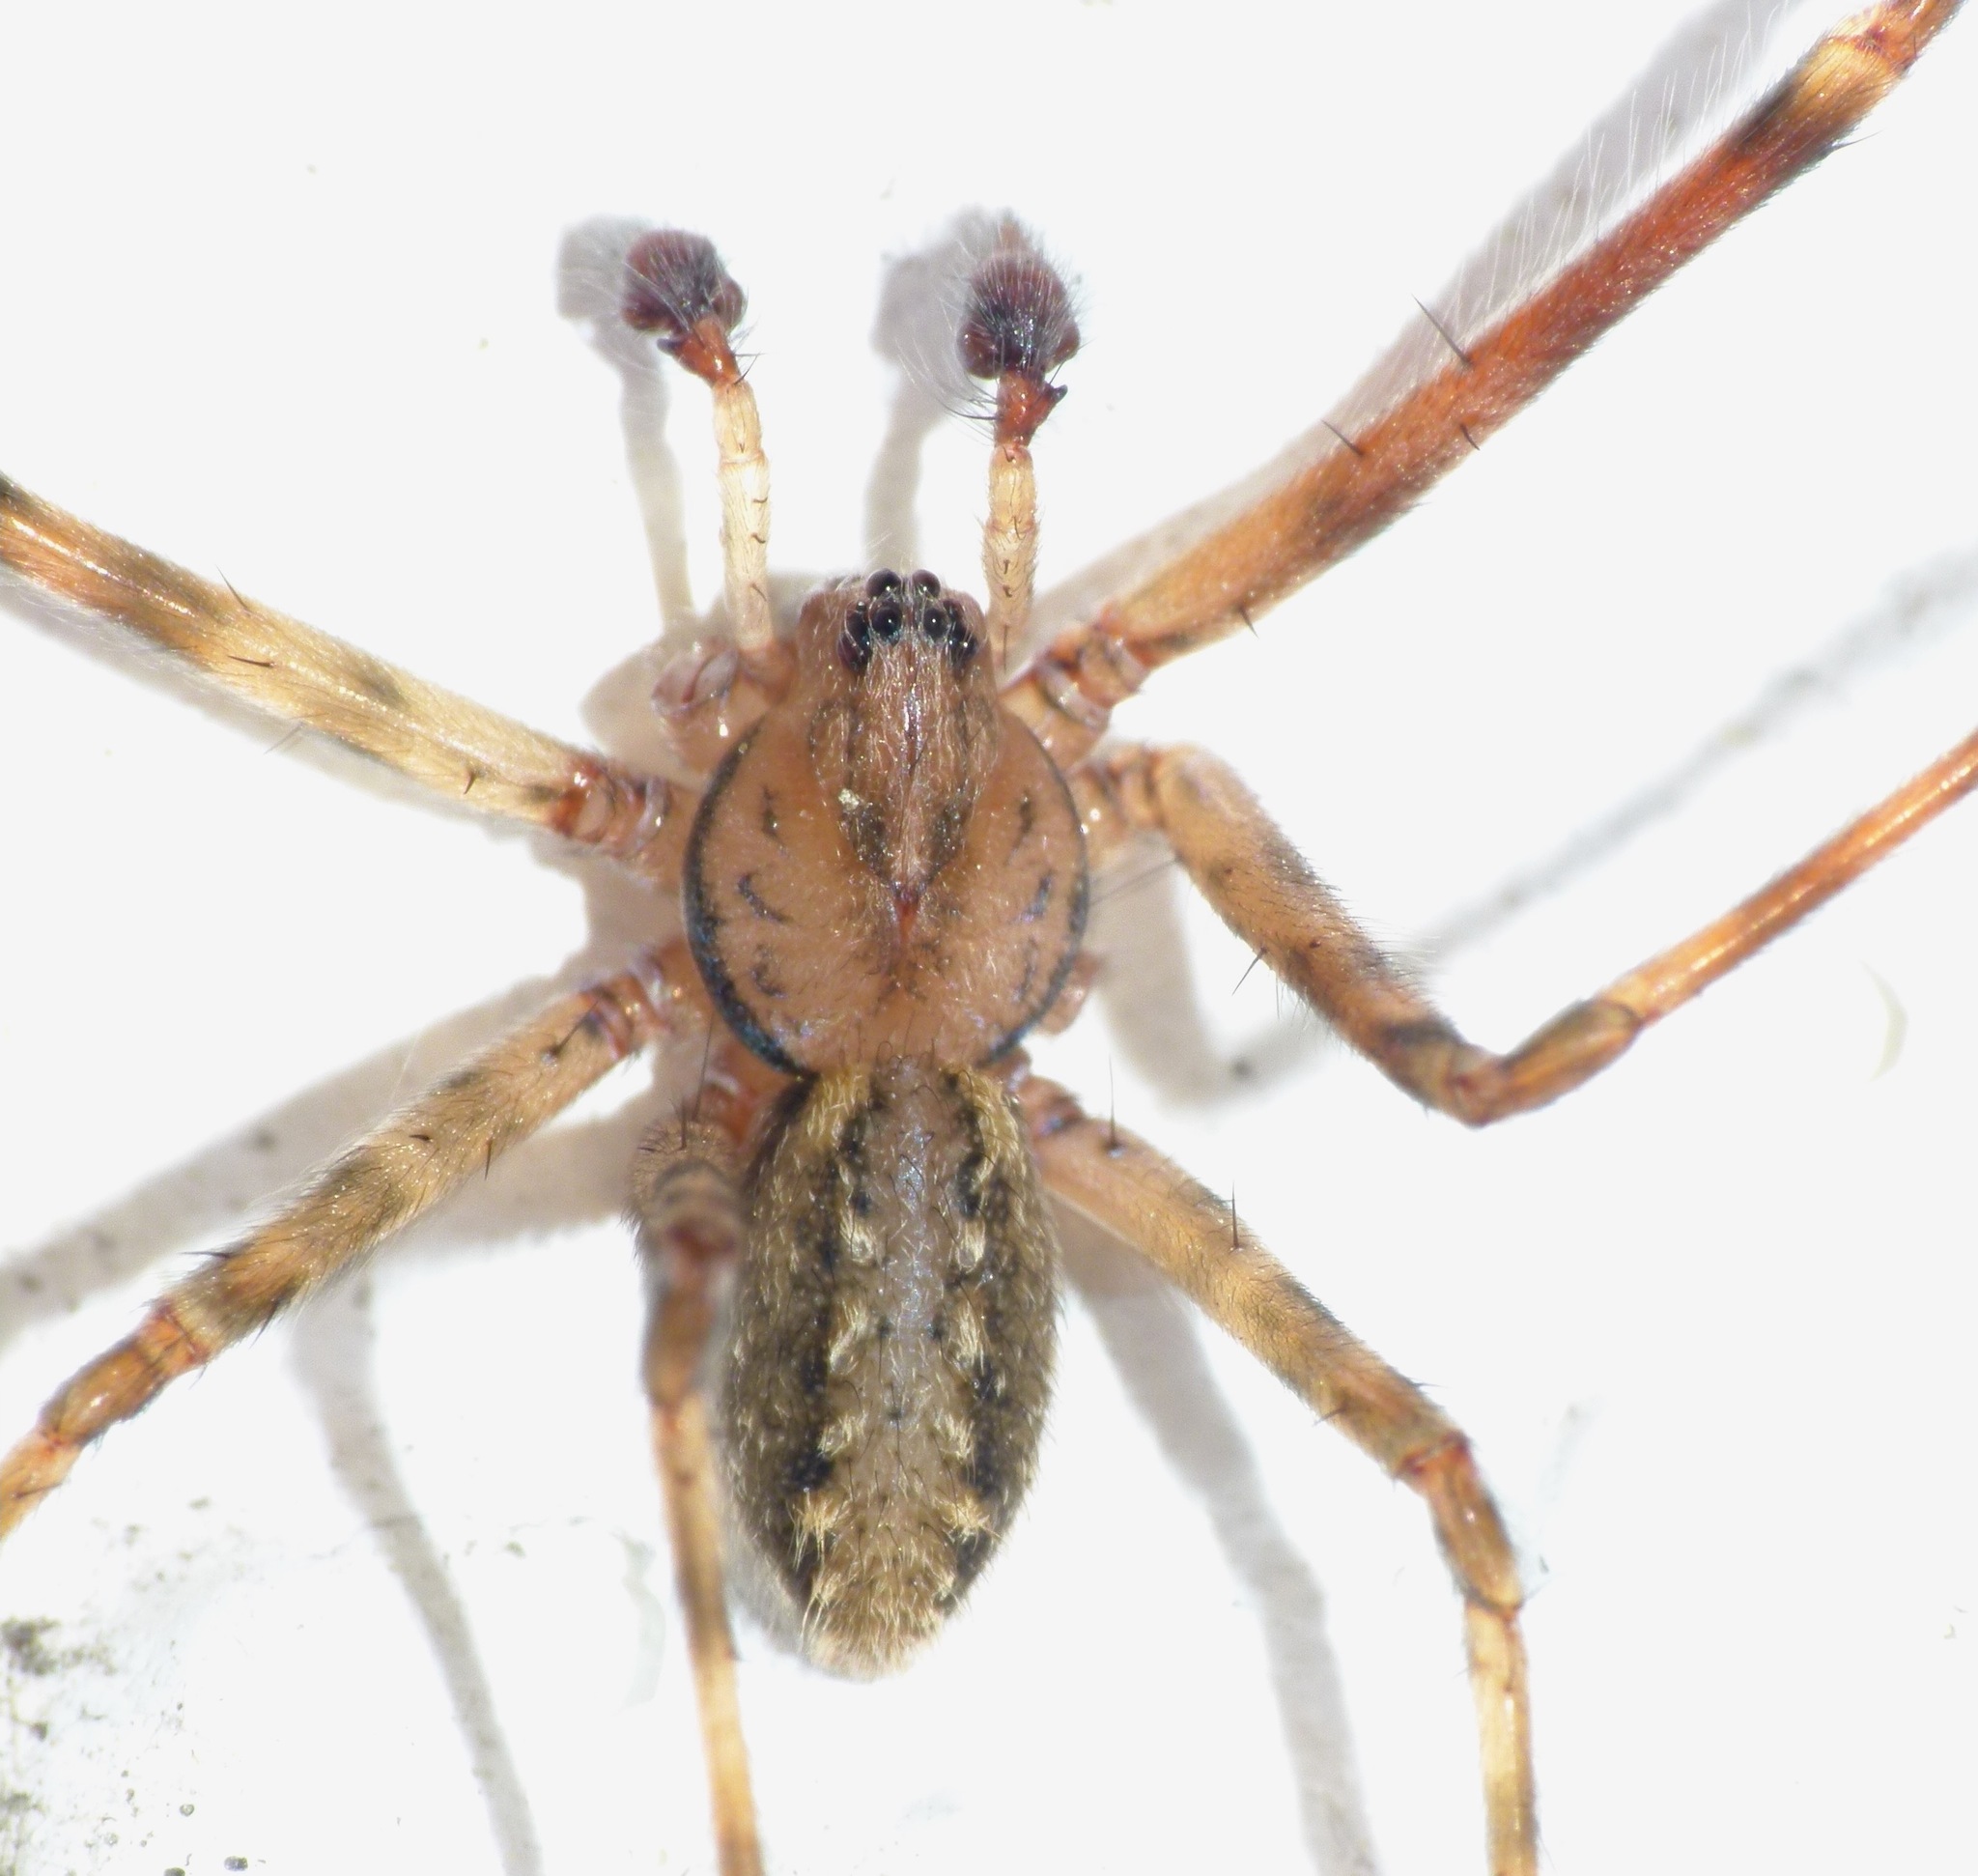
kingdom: Animalia
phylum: Arthropoda
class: Arachnida
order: Araneae
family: Stiphidiidae
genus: Stiphidion
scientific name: Stiphidion facetum
